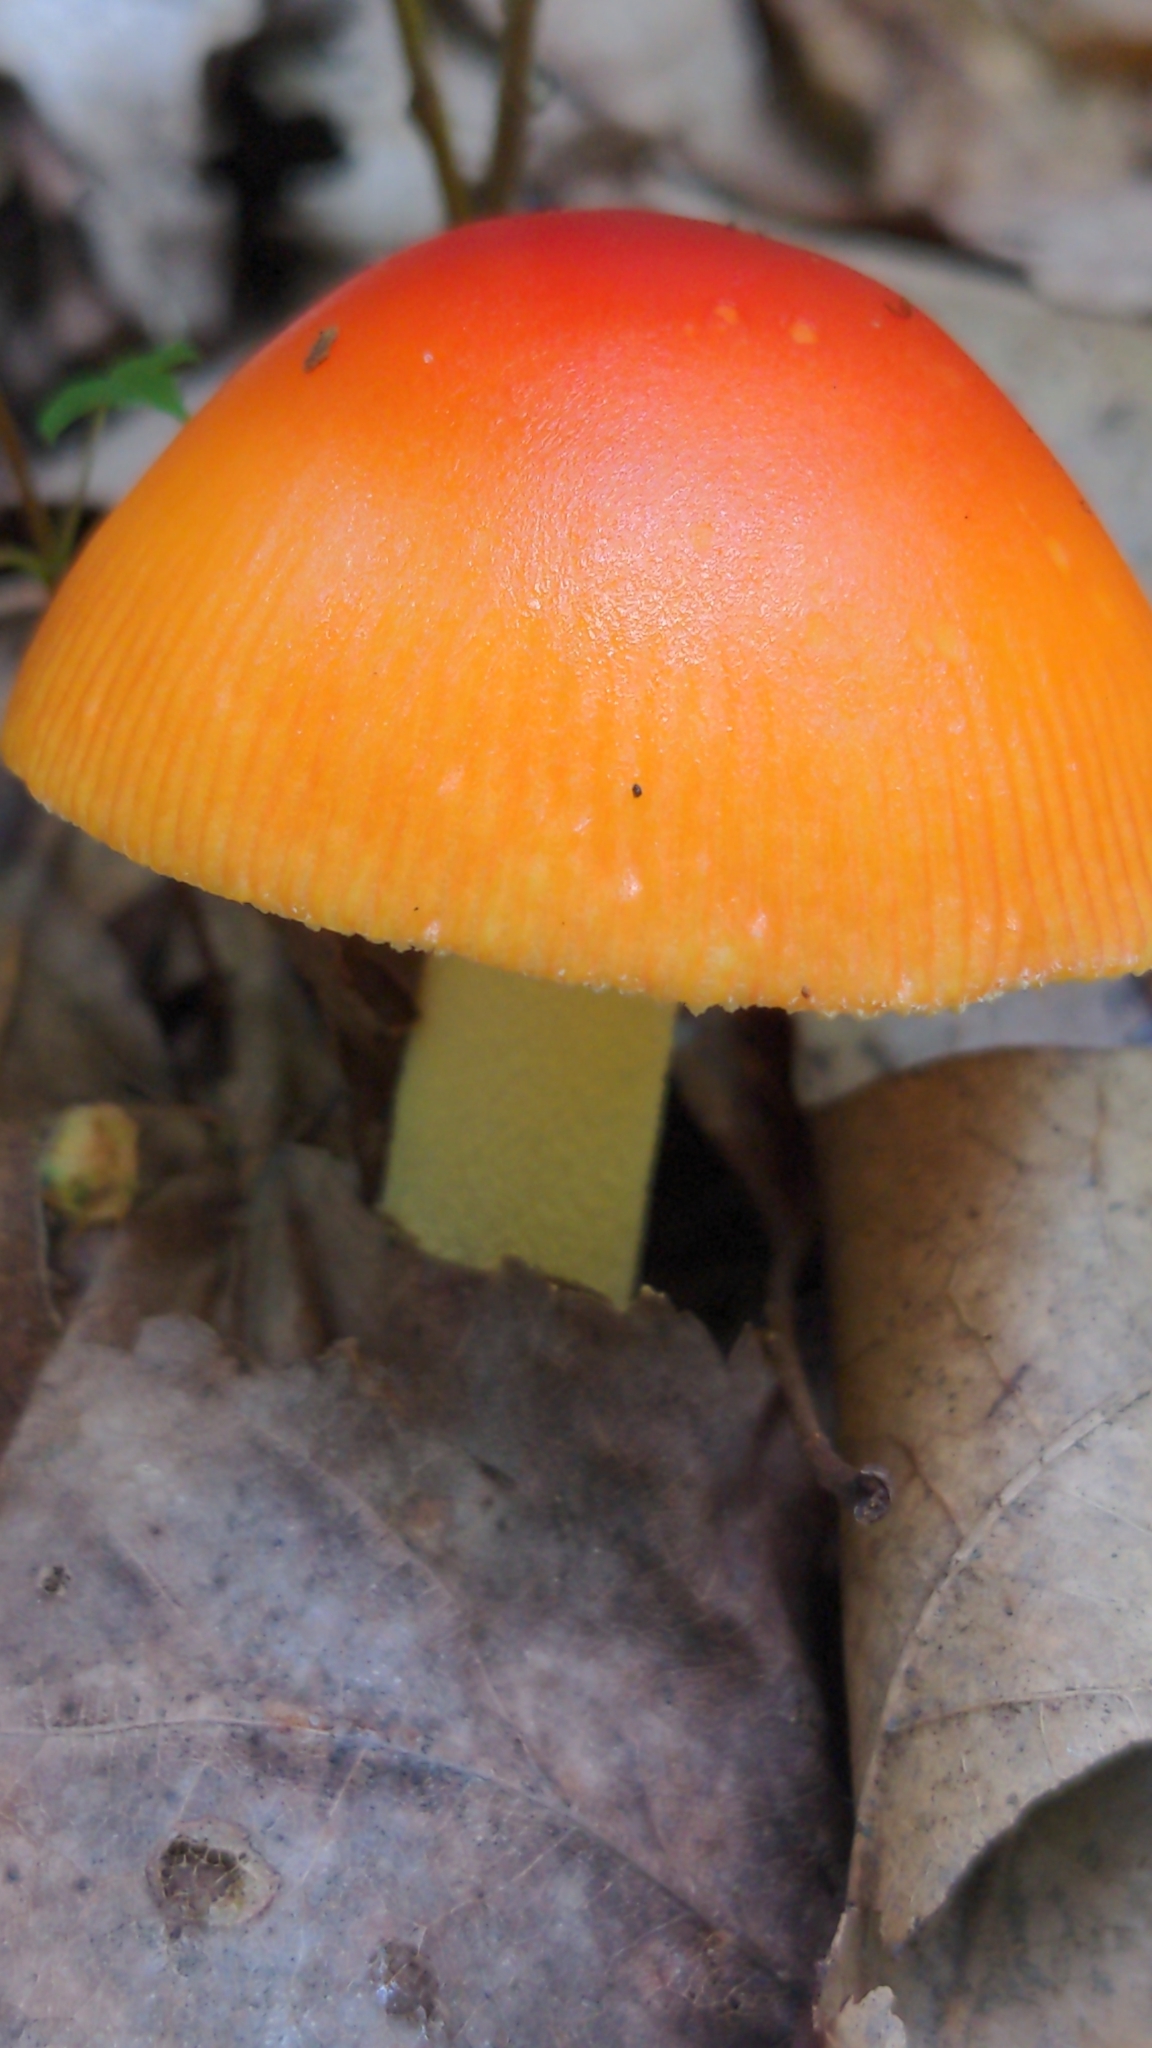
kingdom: Fungi
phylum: Basidiomycota
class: Agaricomycetes
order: Agaricales
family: Amanitaceae
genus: Amanita
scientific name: Amanita parcivolvata
